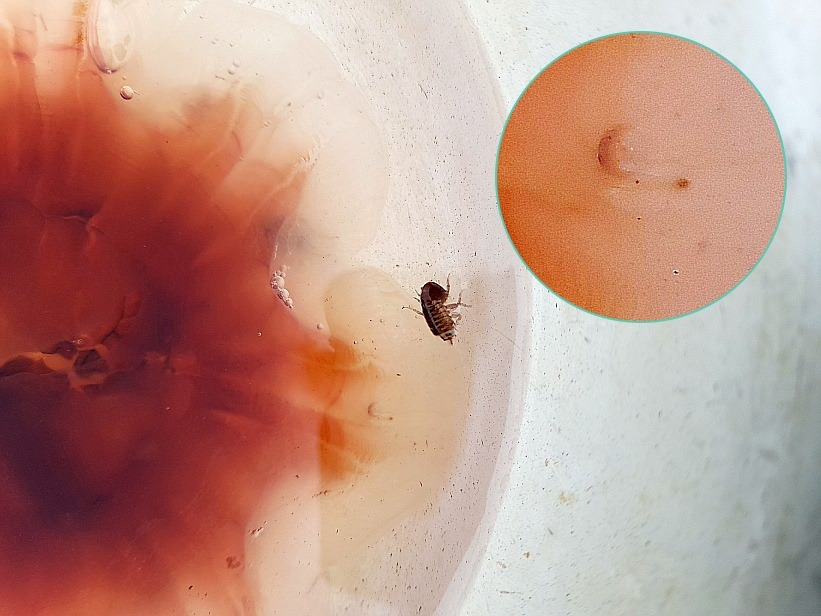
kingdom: Animalia
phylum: Cnidaria
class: Scyphozoa
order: Semaeostomeae
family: Cyaneidae
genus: Cyanea
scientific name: Cyanea capillata
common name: Lion's mane jellyfish
